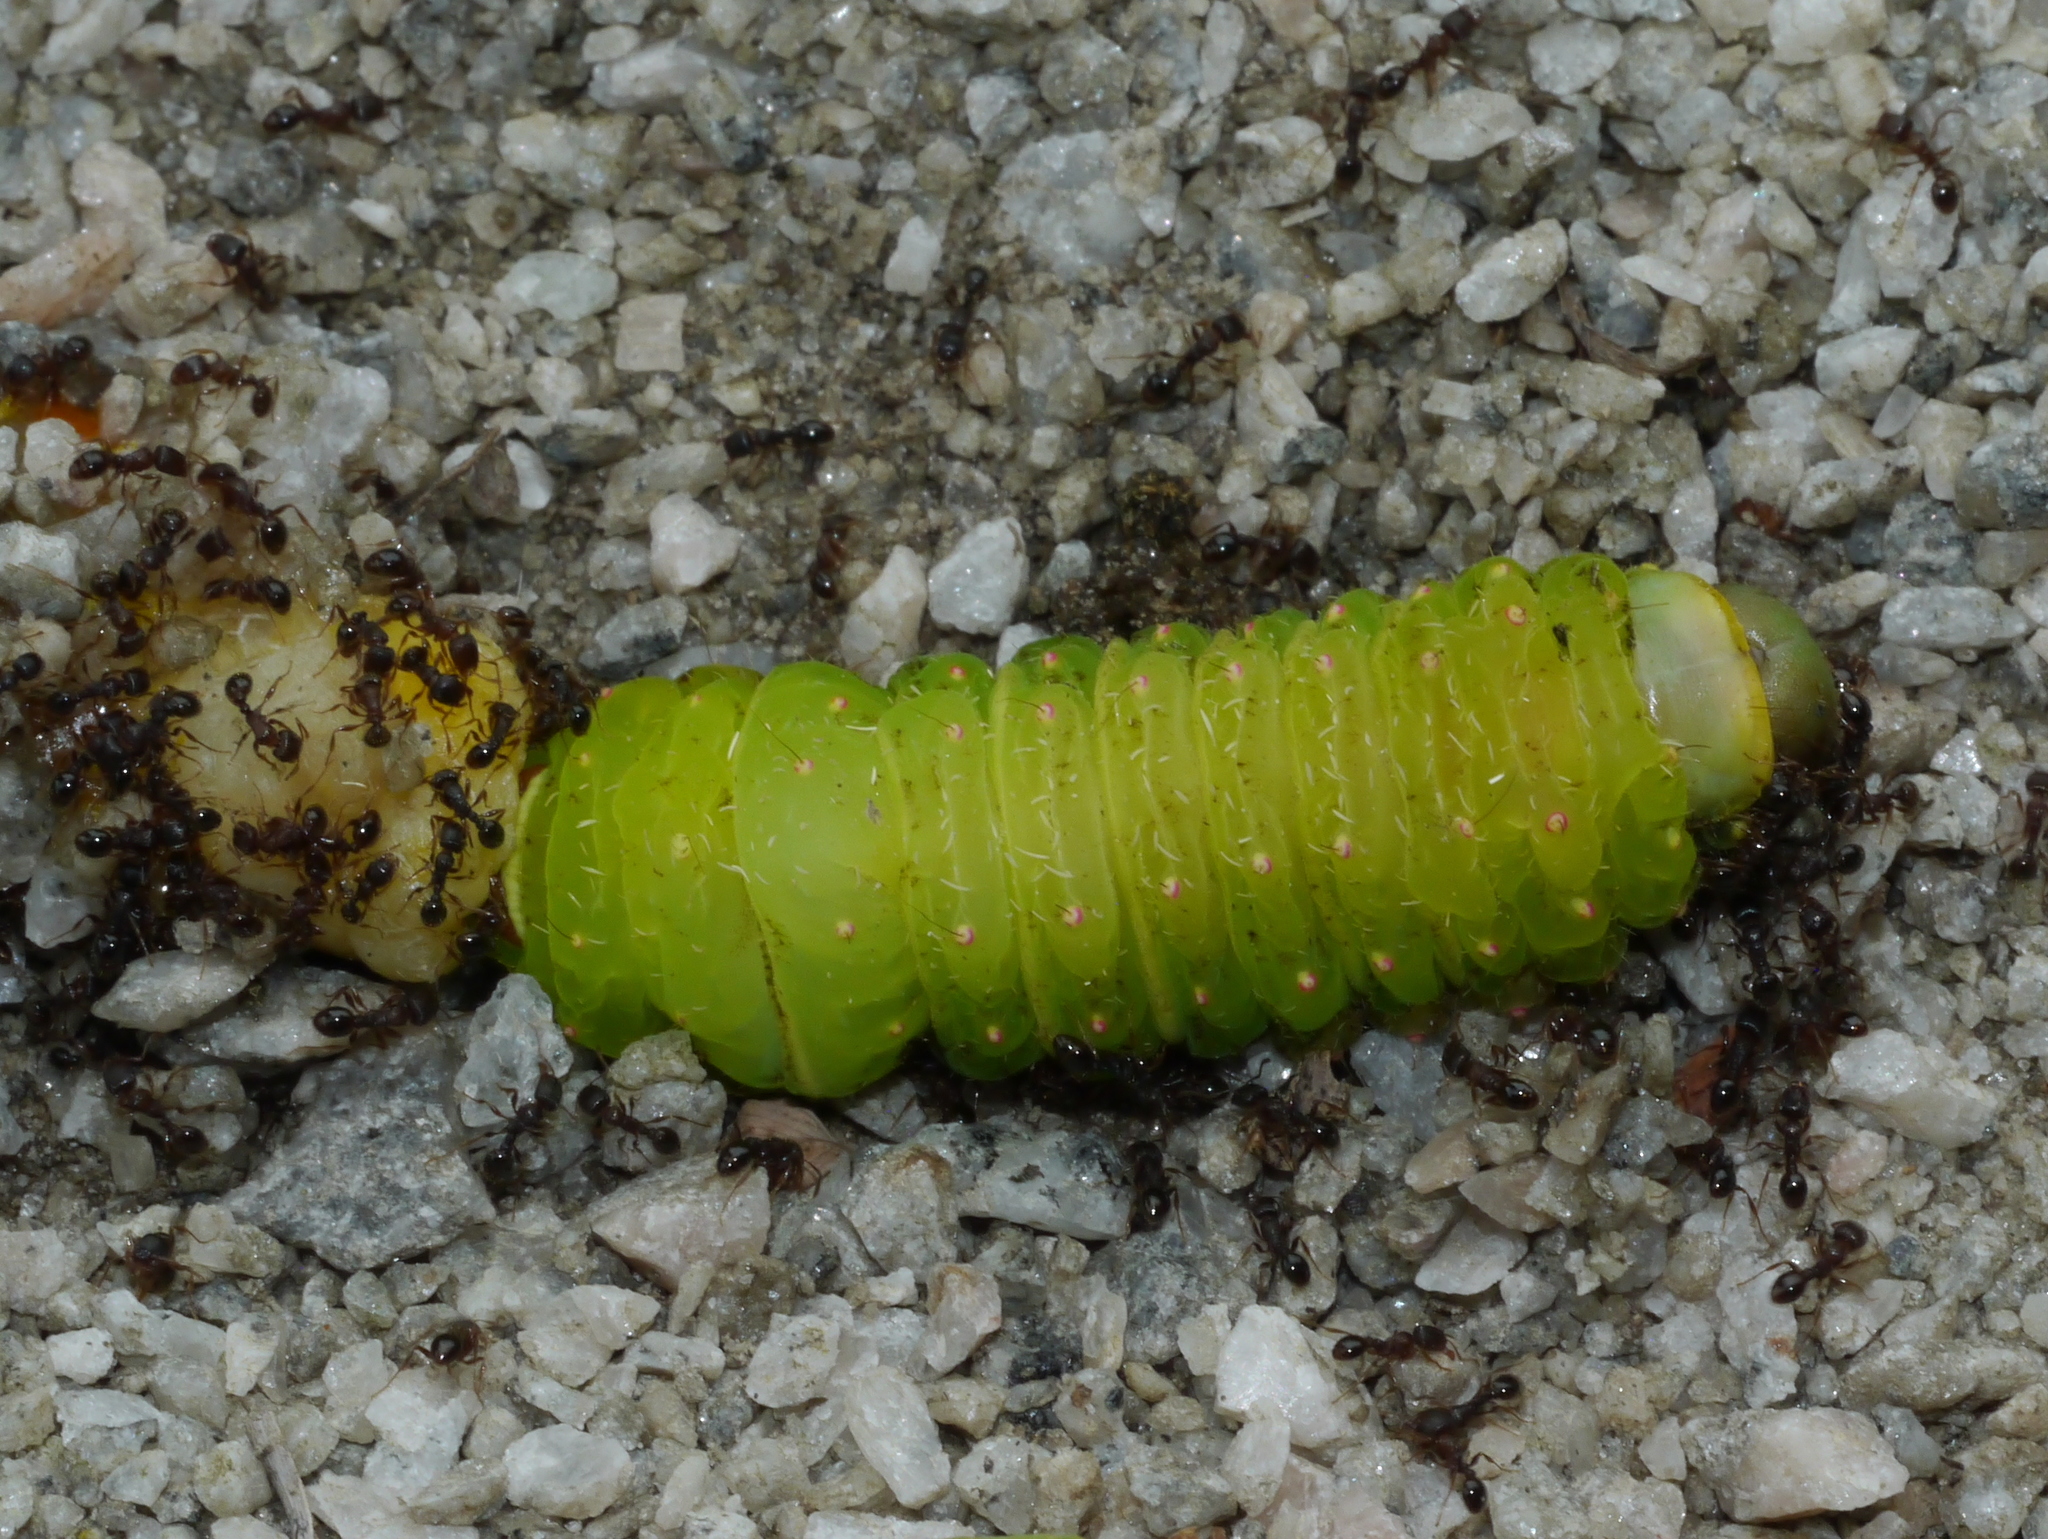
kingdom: Animalia
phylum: Arthropoda
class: Insecta
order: Lepidoptera
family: Saturniidae
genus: Actias
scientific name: Actias luna
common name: Luna moth
